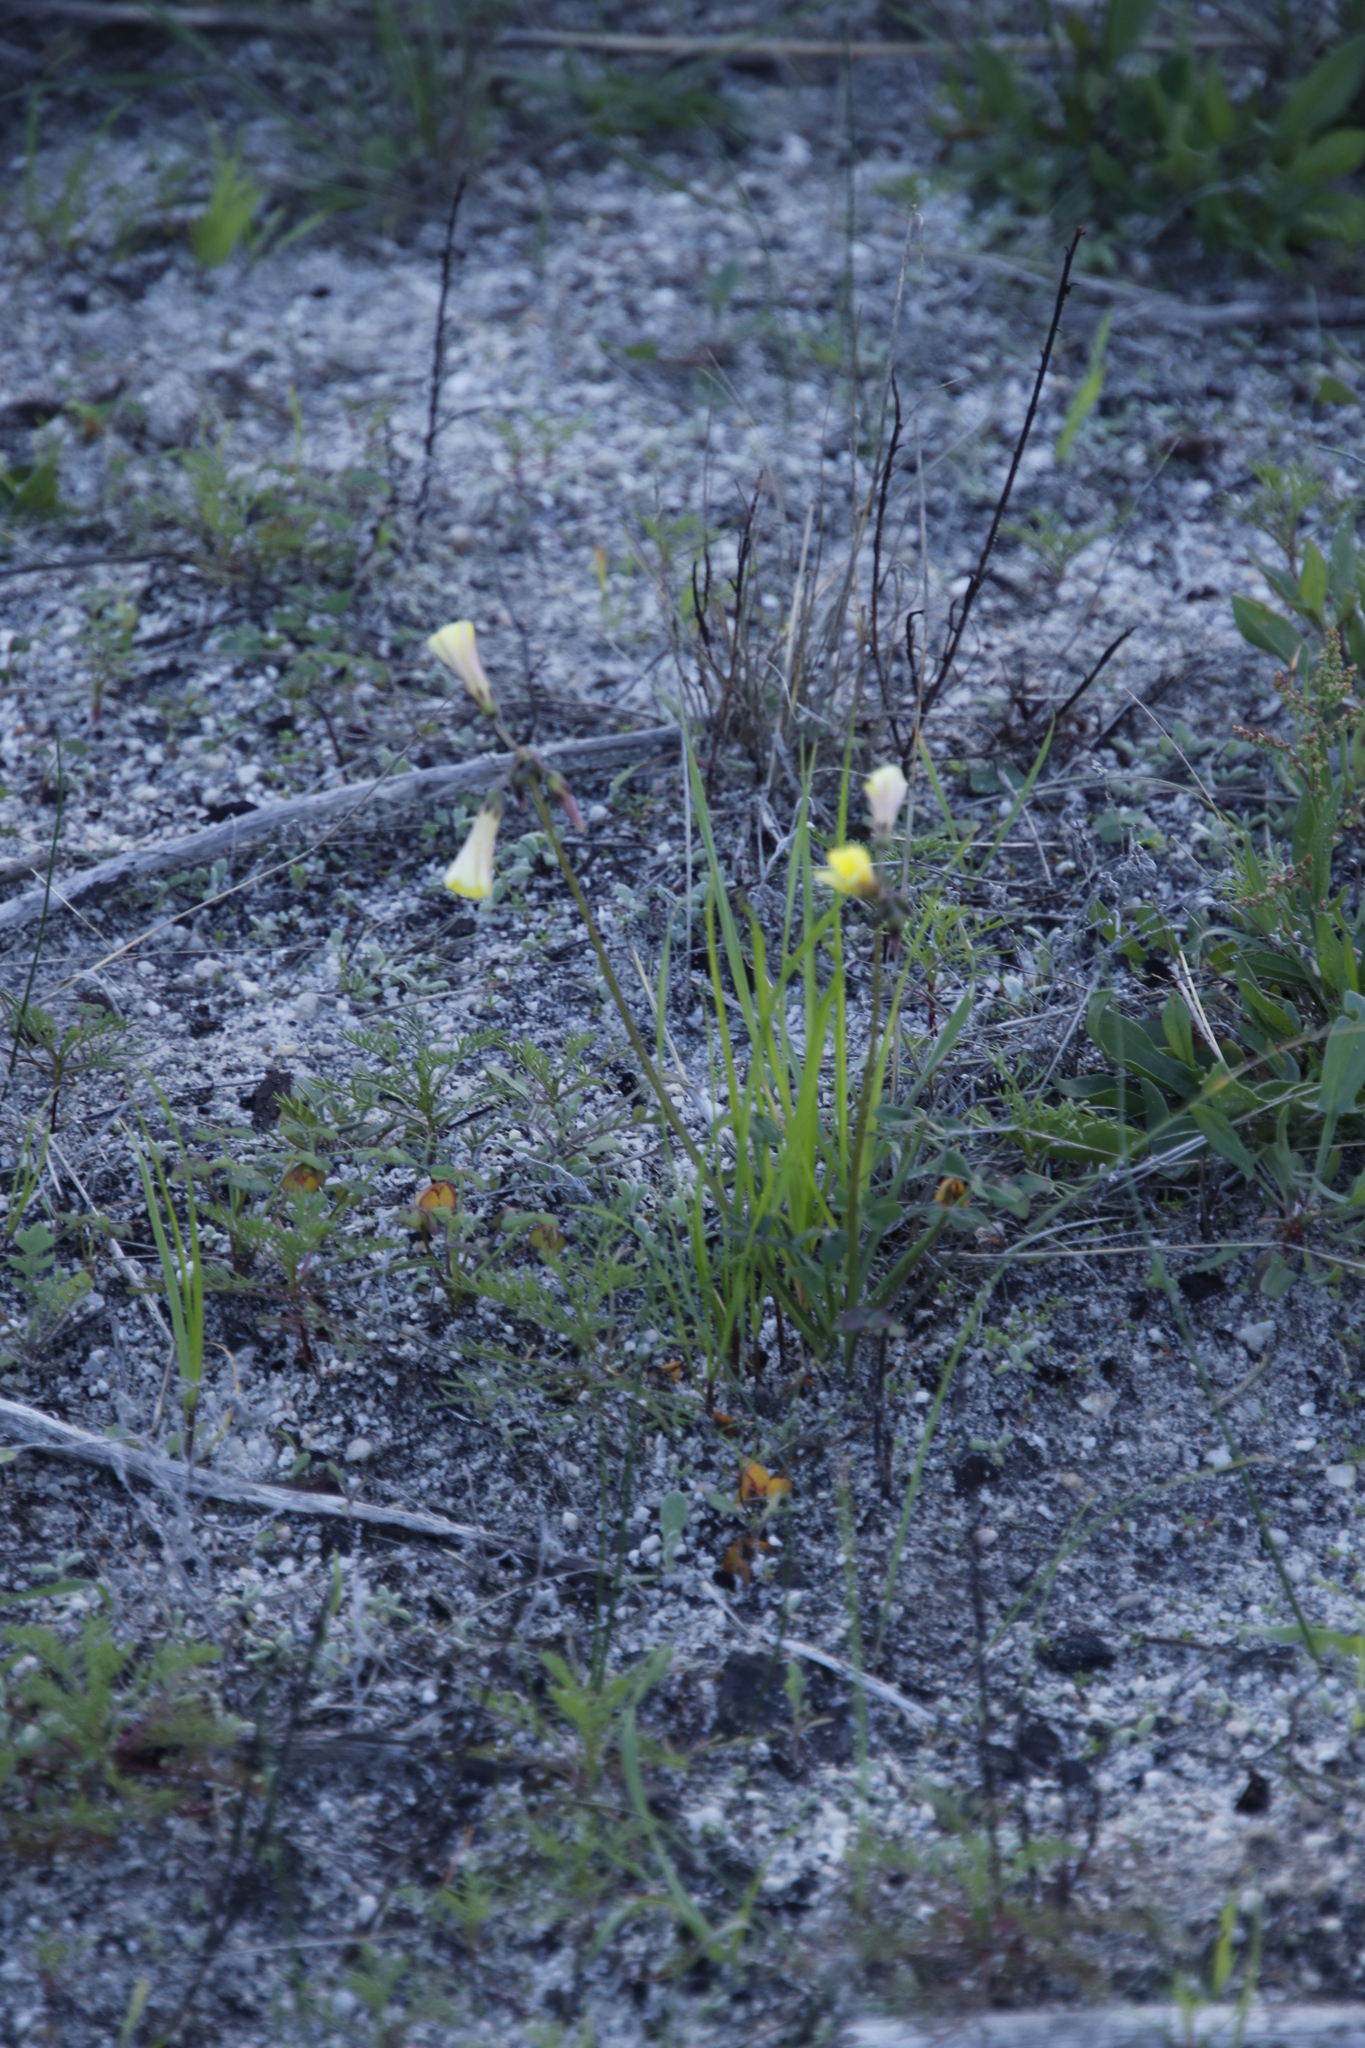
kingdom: Plantae
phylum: Tracheophyta
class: Magnoliopsida
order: Oxalidales
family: Oxalidaceae
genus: Oxalis
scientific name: Oxalis pes-caprae
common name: Bermuda-buttercup
